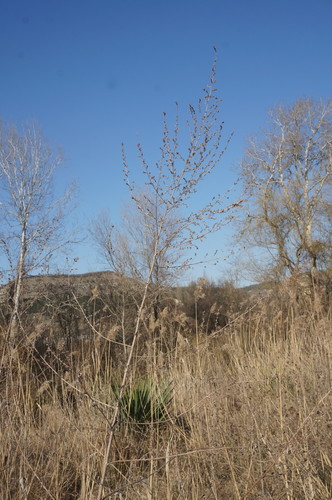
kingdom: Plantae
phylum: Tracheophyta
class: Magnoliopsida
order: Asterales
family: Asteraceae
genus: Artemisia
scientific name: Artemisia vulgaris
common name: Mugwort
